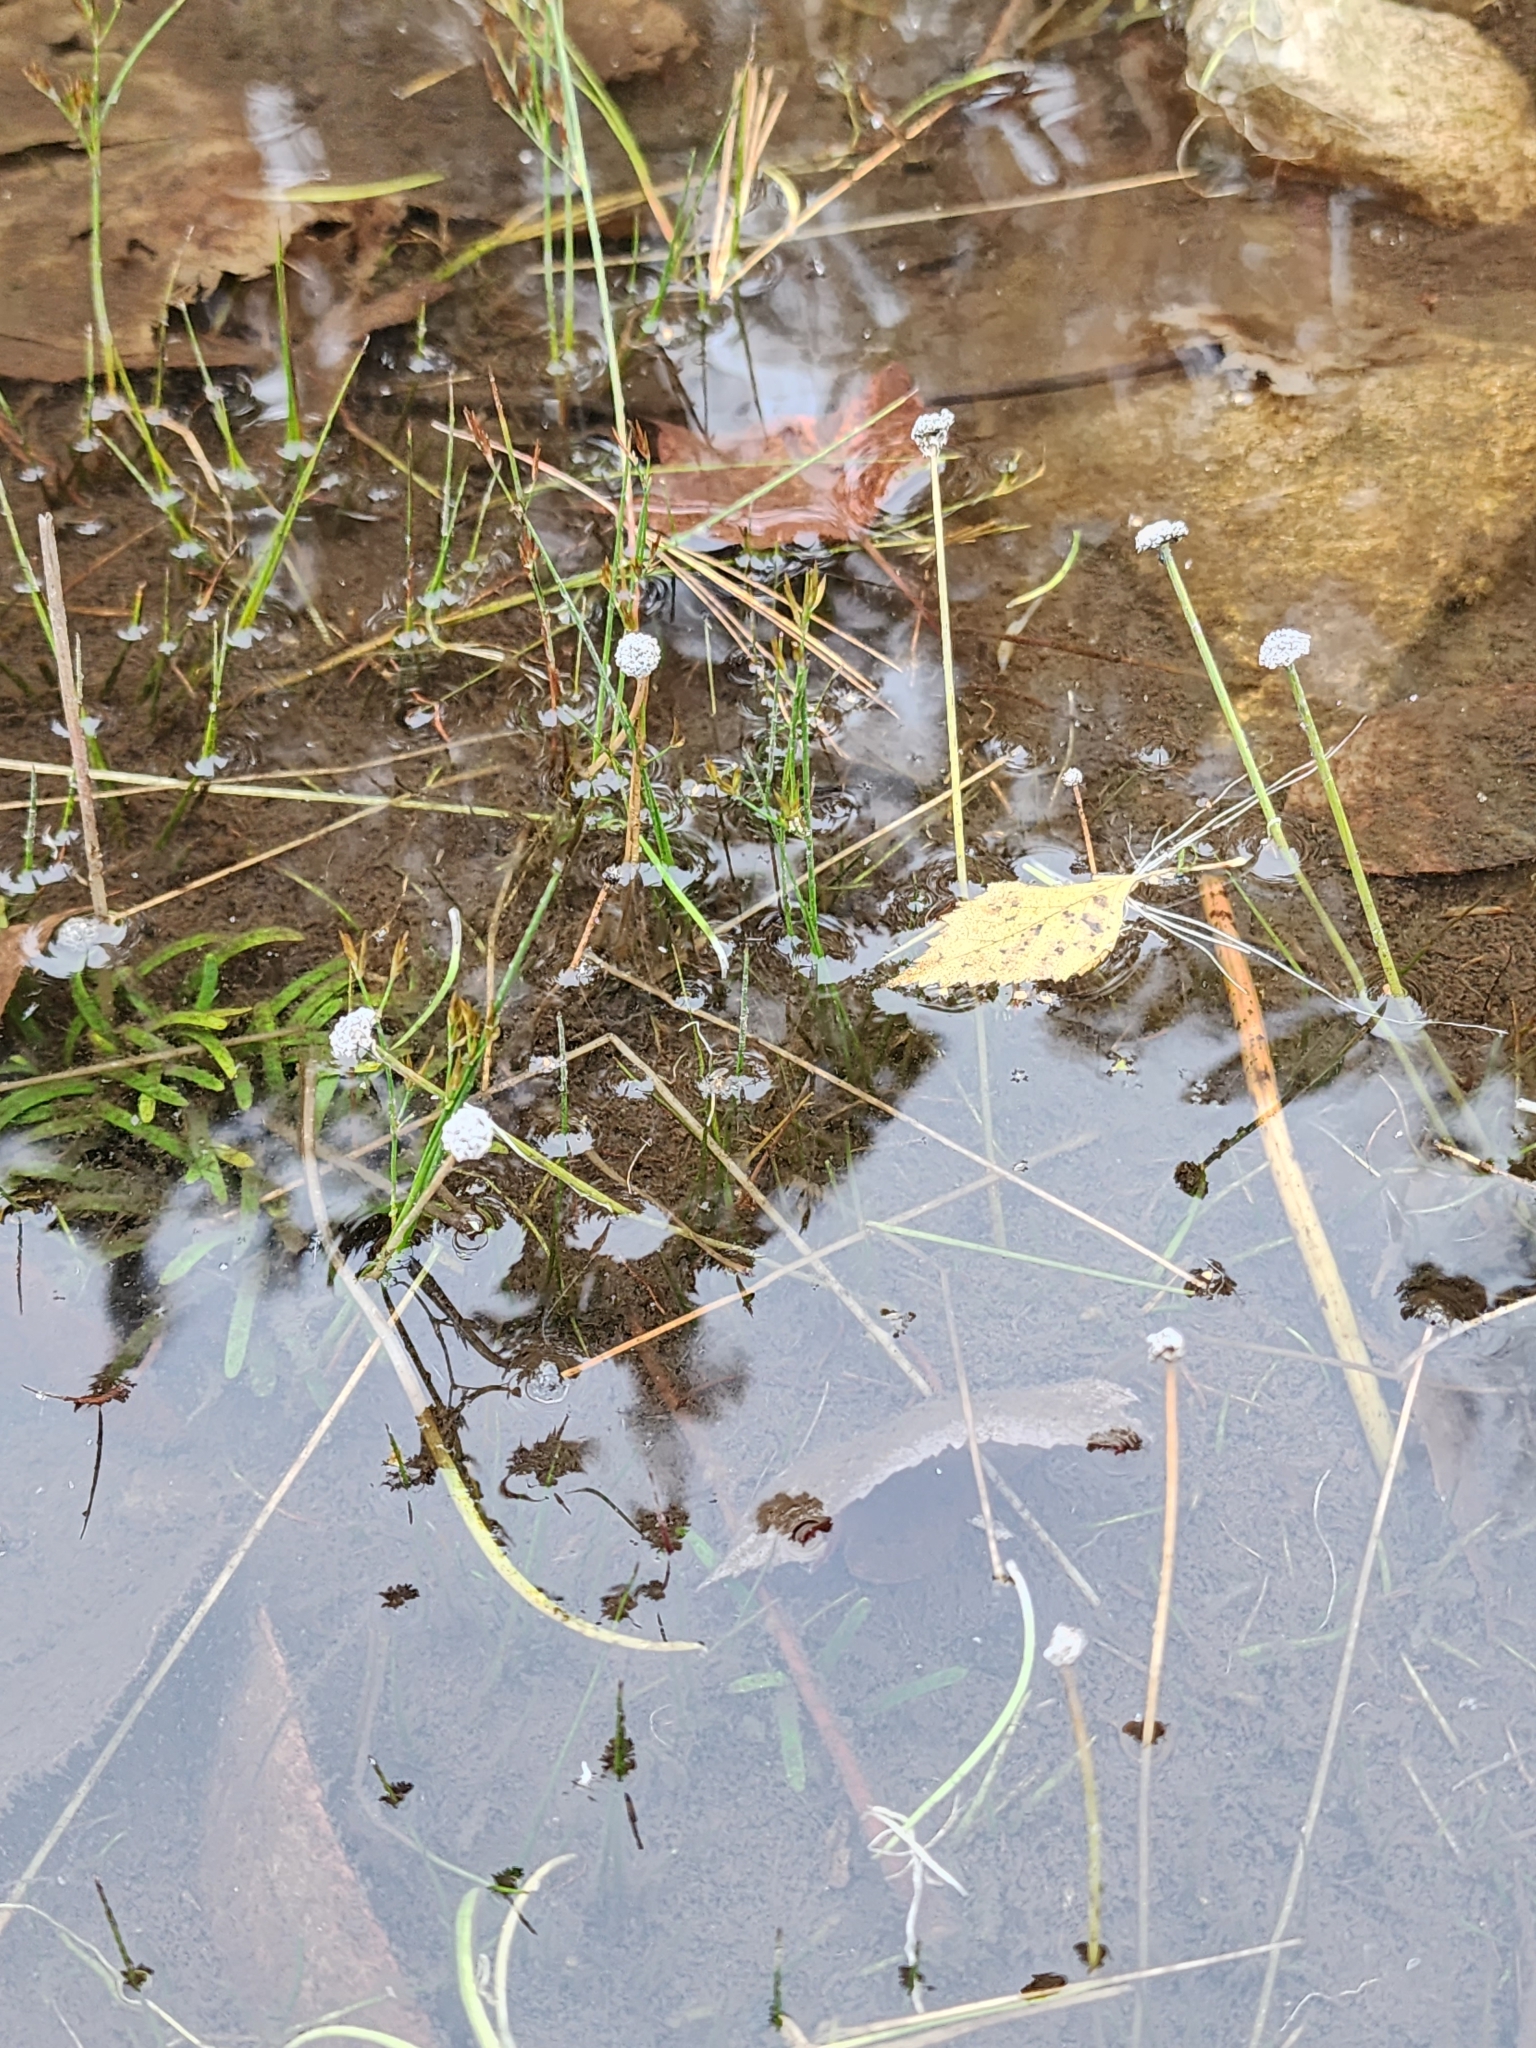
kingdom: Plantae
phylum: Tracheophyta
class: Liliopsida
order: Poales
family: Eriocaulaceae
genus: Eriocaulon
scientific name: Eriocaulon aquaticum
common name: Pipewort
